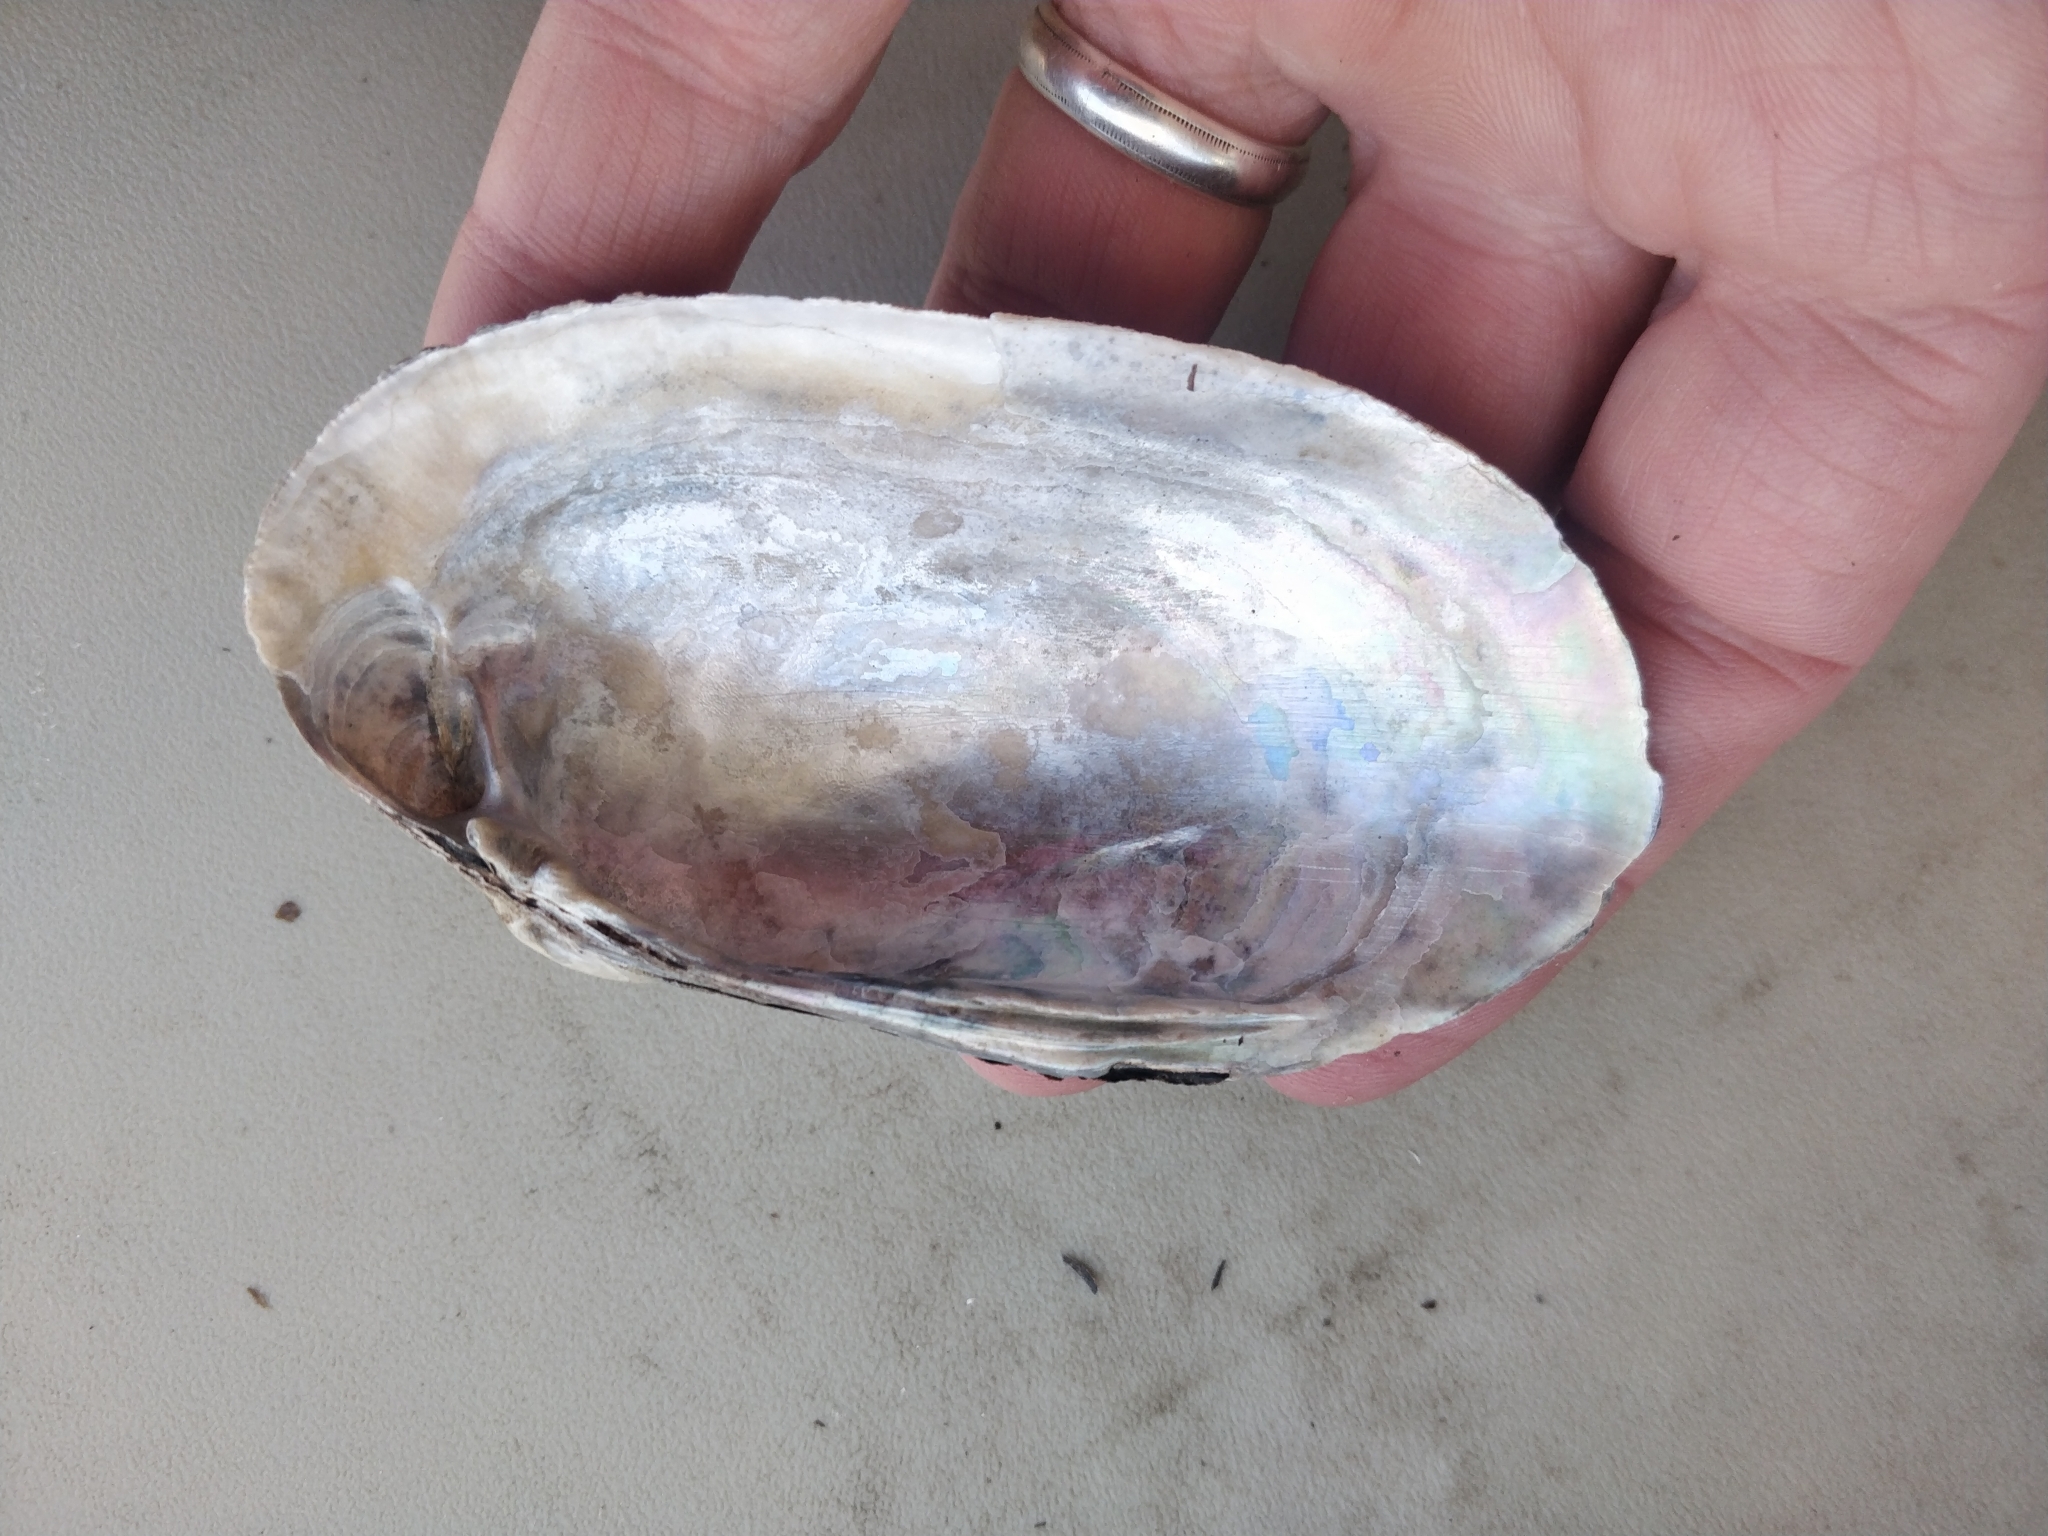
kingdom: Animalia
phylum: Mollusca
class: Bivalvia
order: Unionida
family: Unionidae
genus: Lampsilis
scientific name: Lampsilis siliquoidea
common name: Fatmucket
